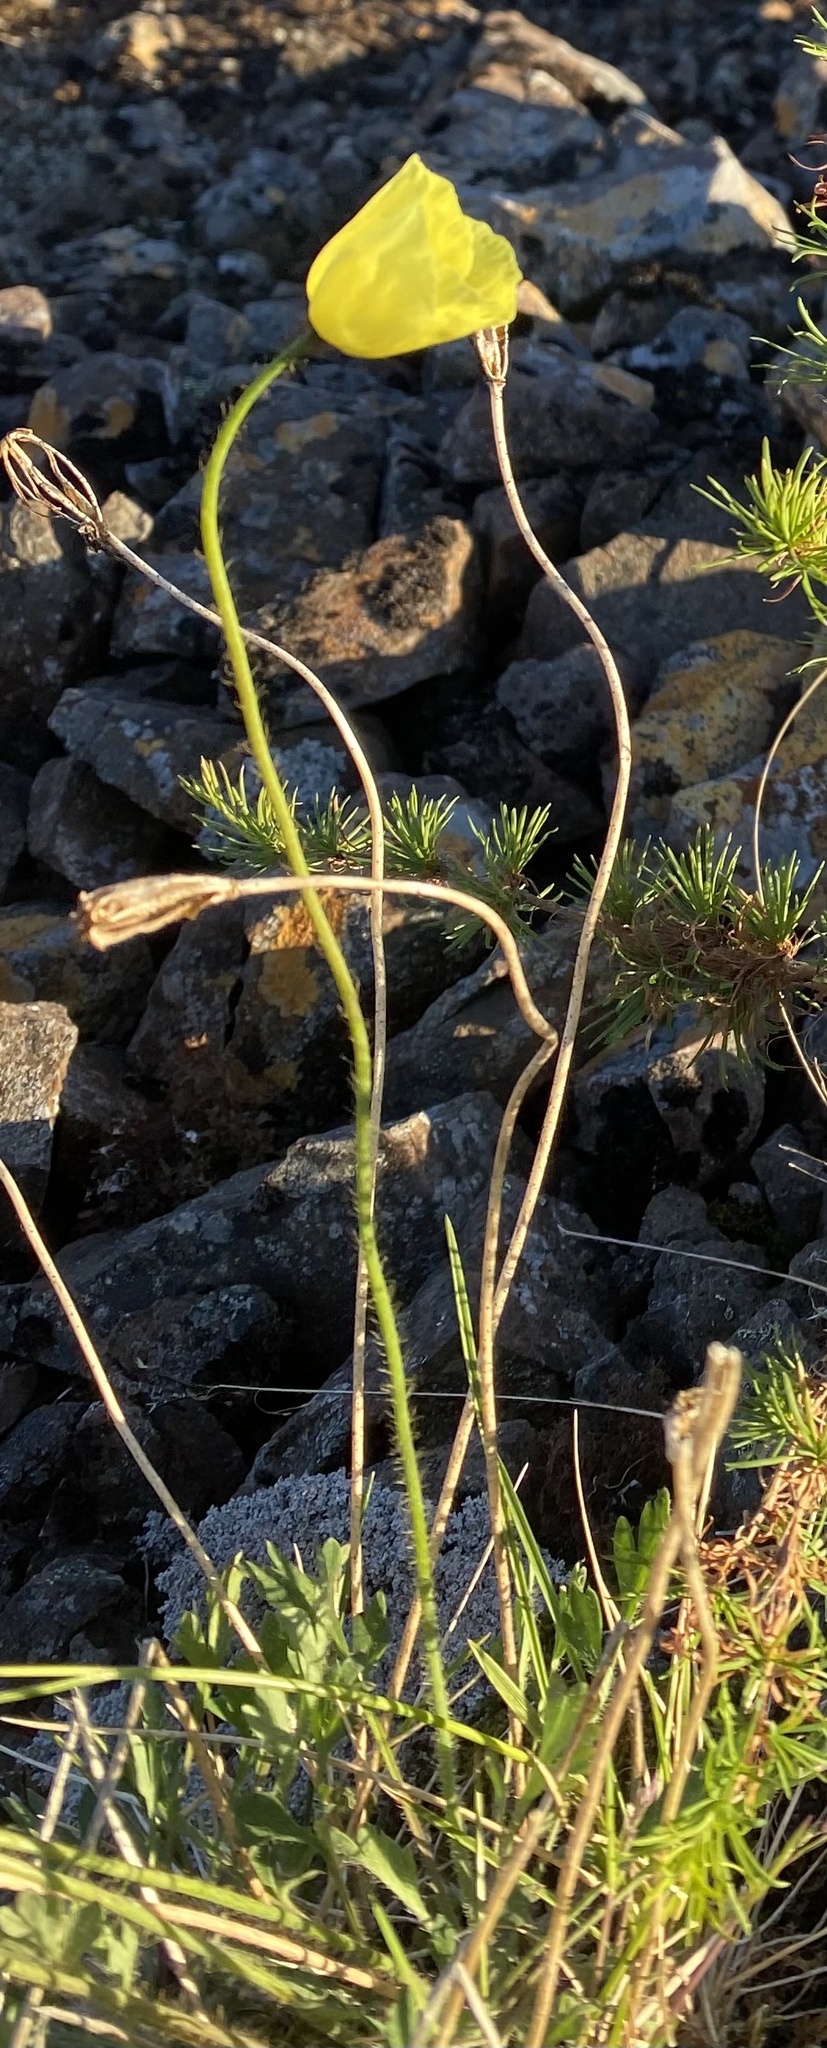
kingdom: Plantae
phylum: Tracheophyta
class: Magnoliopsida
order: Ranunculales
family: Papaveraceae
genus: Papaver
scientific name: Papaver variegatum
